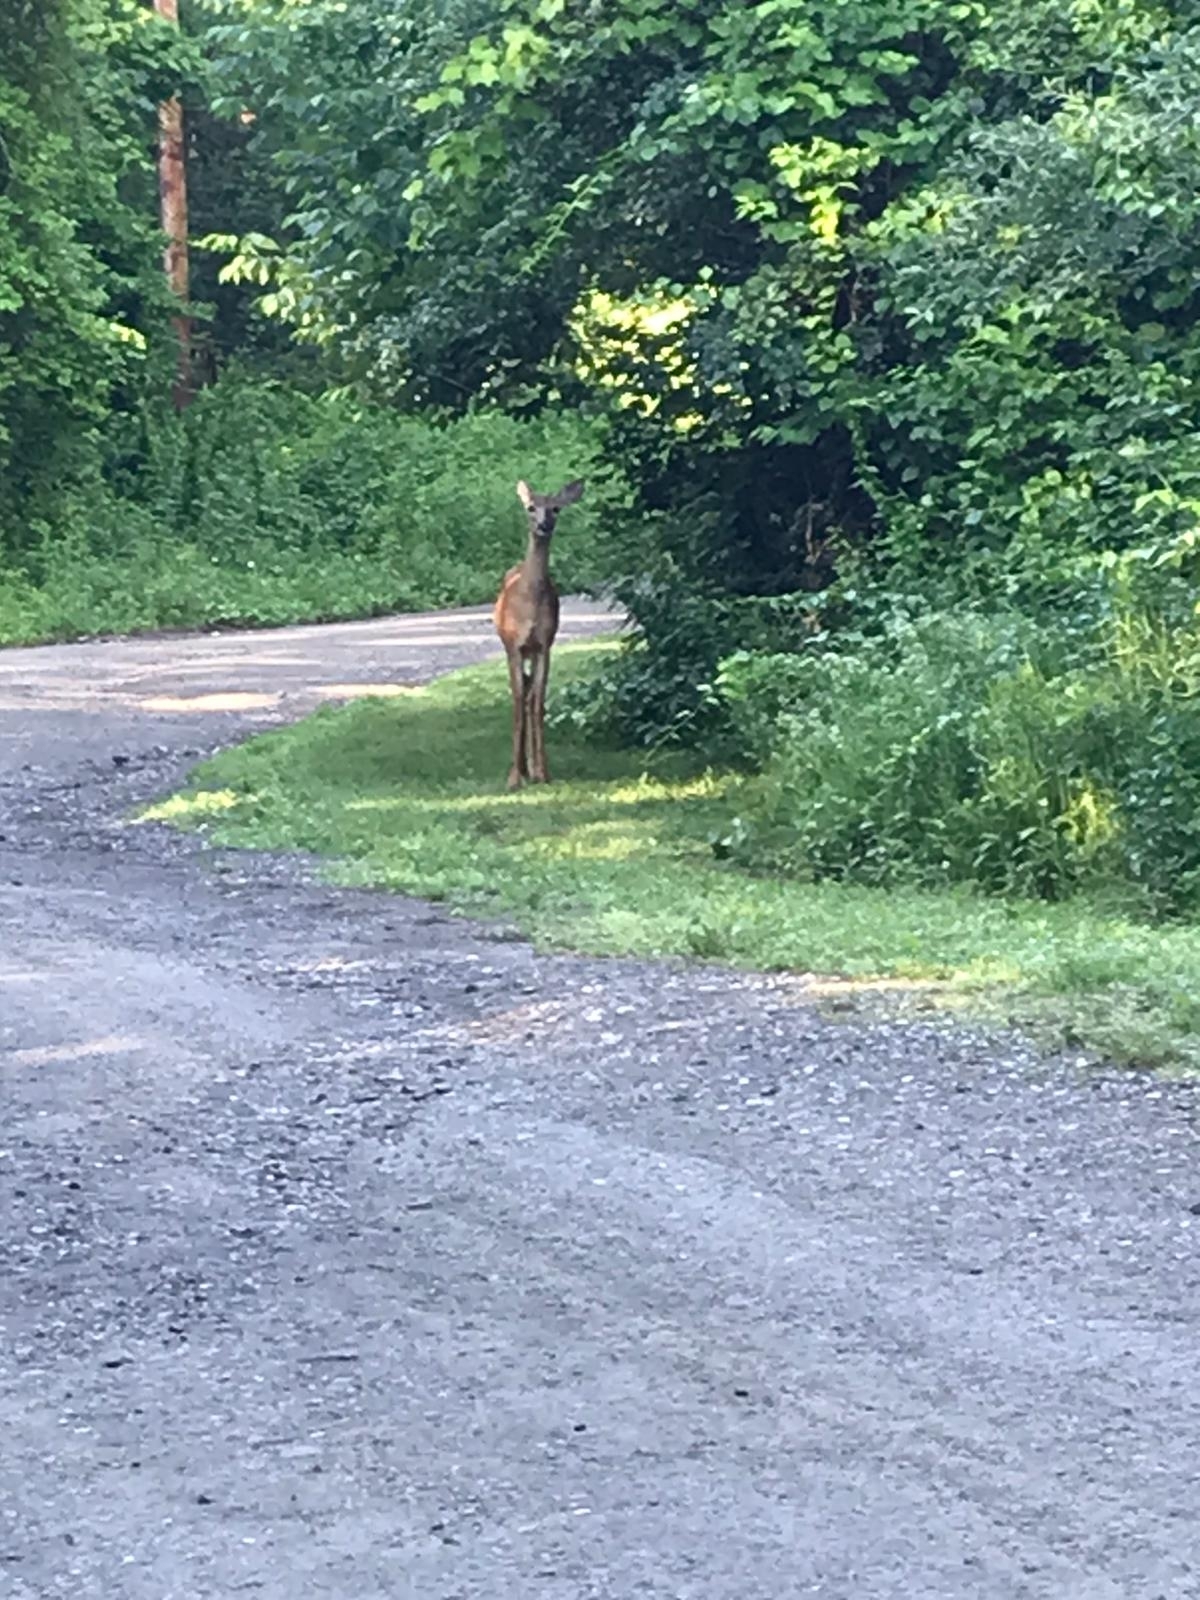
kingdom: Animalia
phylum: Chordata
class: Mammalia
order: Artiodactyla
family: Cervidae
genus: Odocoileus
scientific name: Odocoileus virginianus
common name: White-tailed deer
